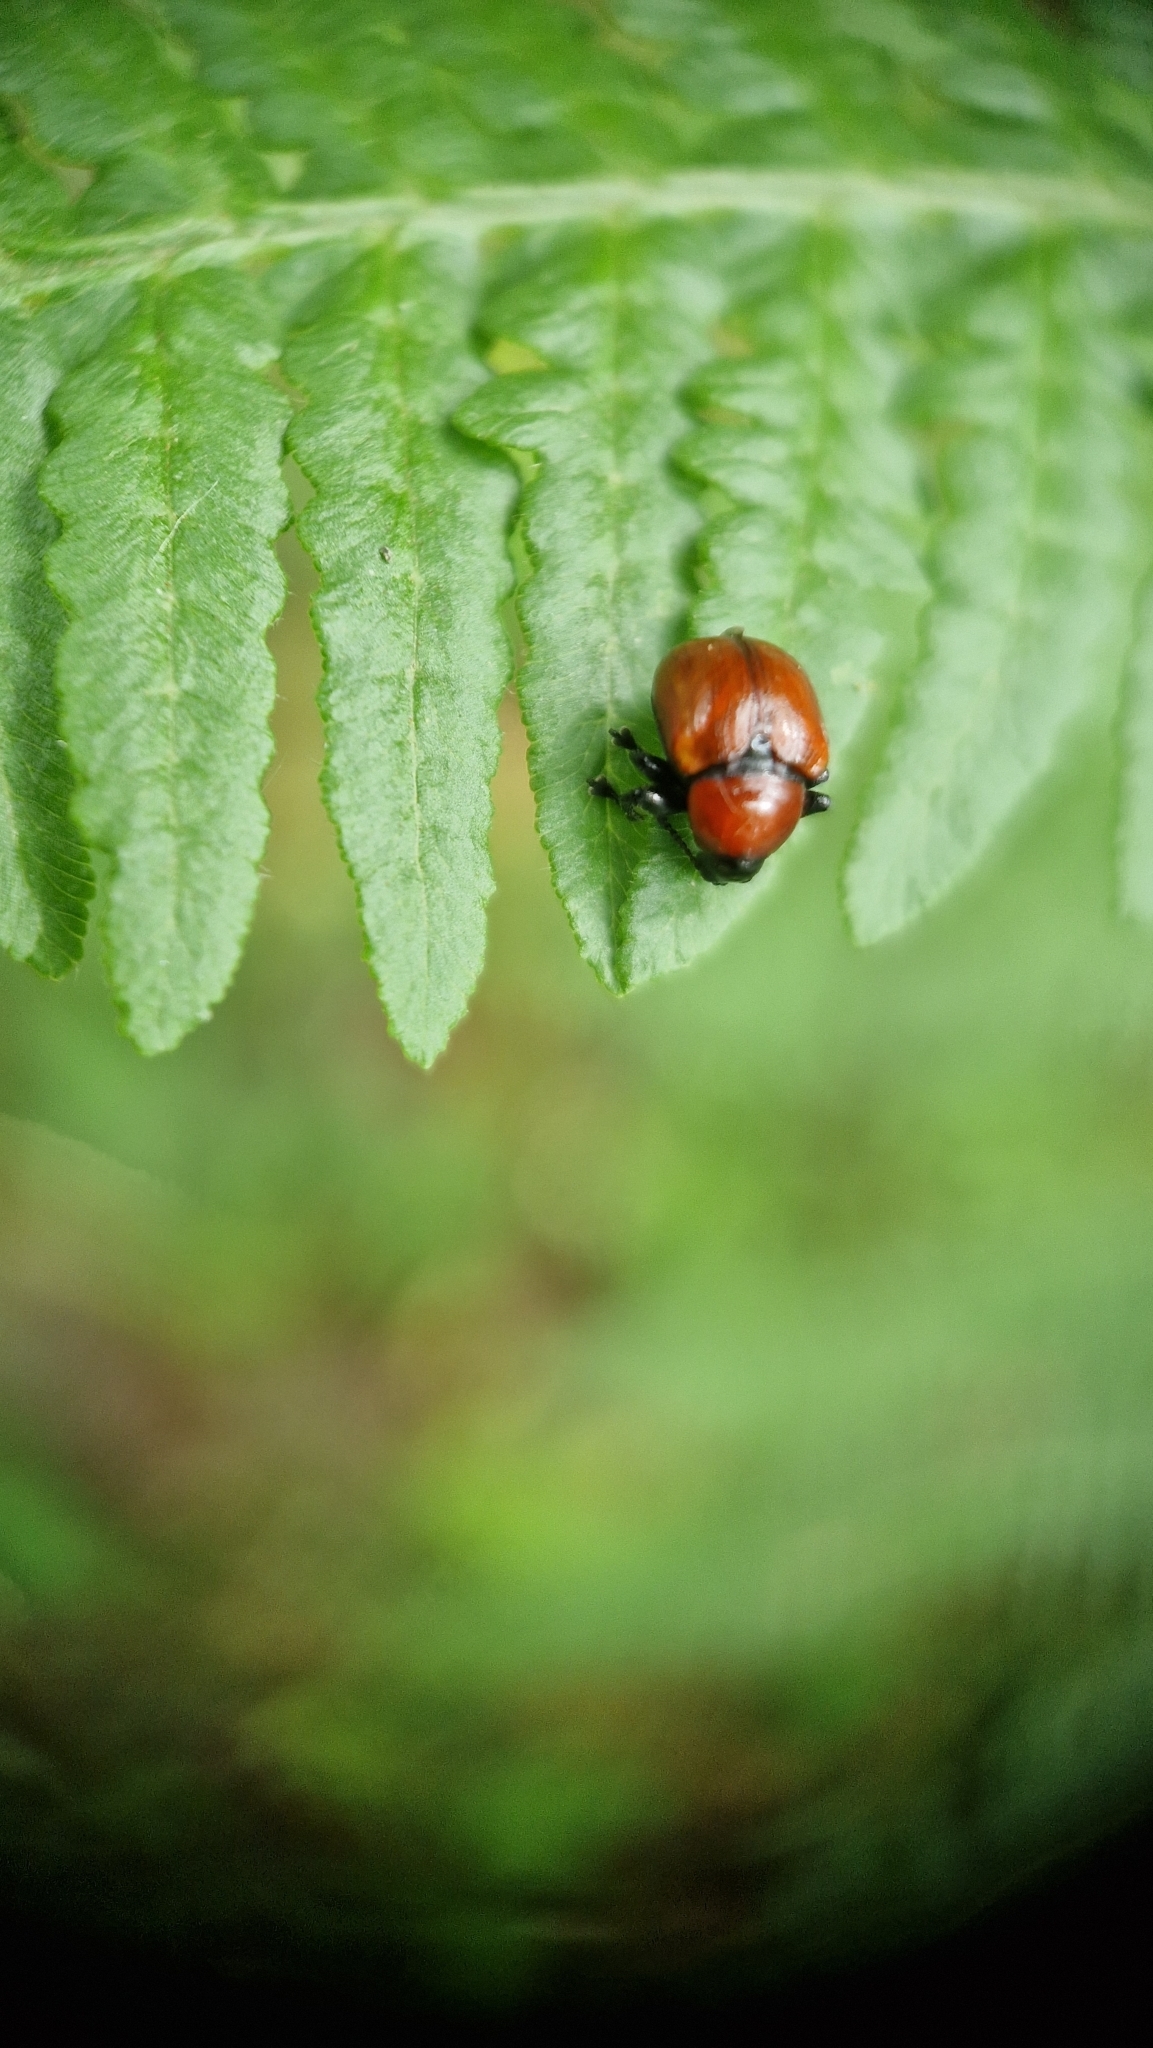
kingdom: Animalia
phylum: Arthropoda
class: Insecta
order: Coleoptera
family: Attelabidae
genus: Attelabus
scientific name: Attelabus nitens
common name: Oak leaf-roller
